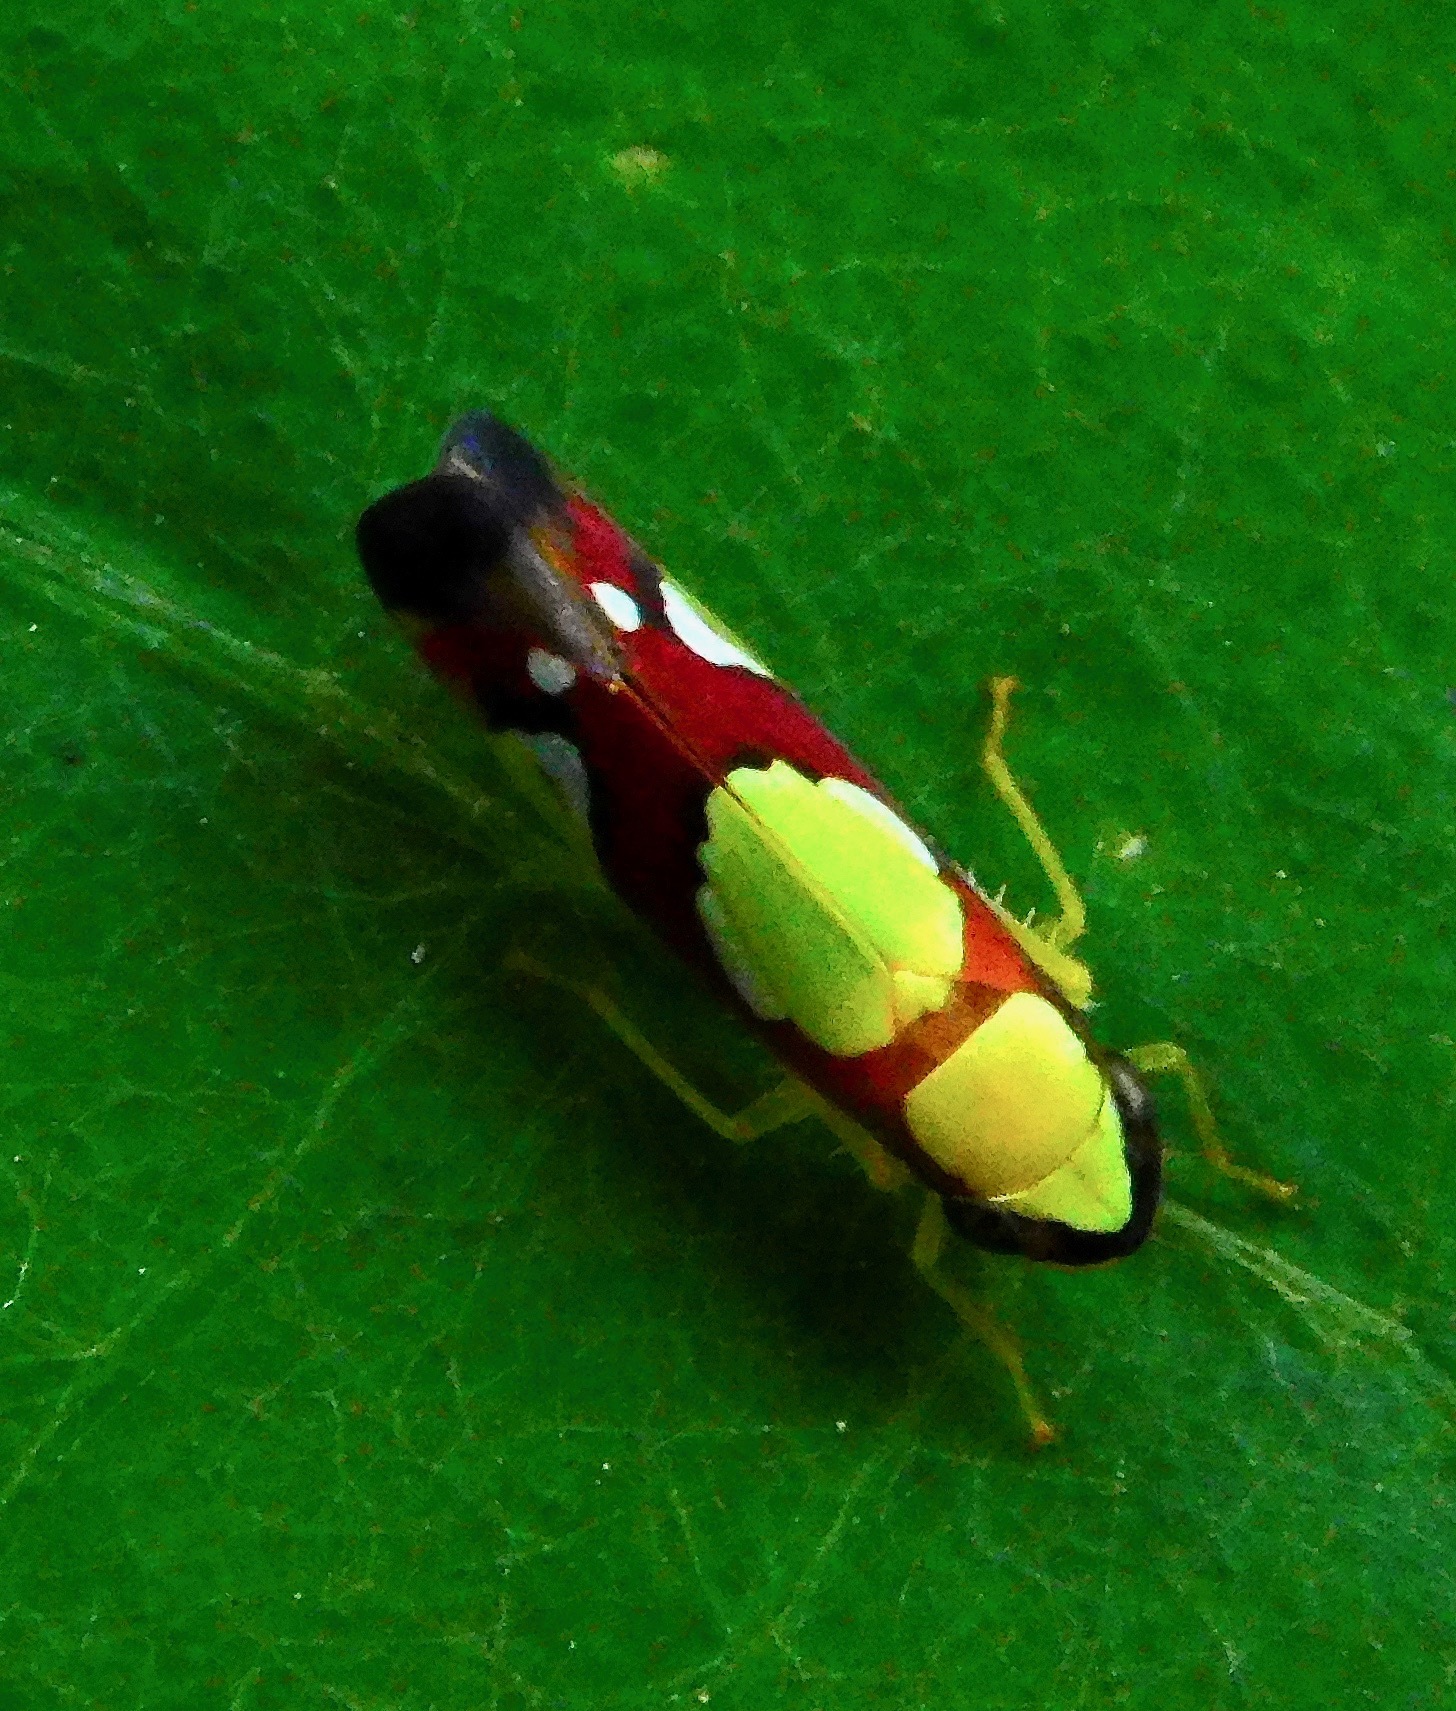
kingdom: Animalia
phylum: Arthropoda
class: Insecta
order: Hemiptera
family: Cicadellidae
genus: Erythrogonia
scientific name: Erythrogonia plagiella
